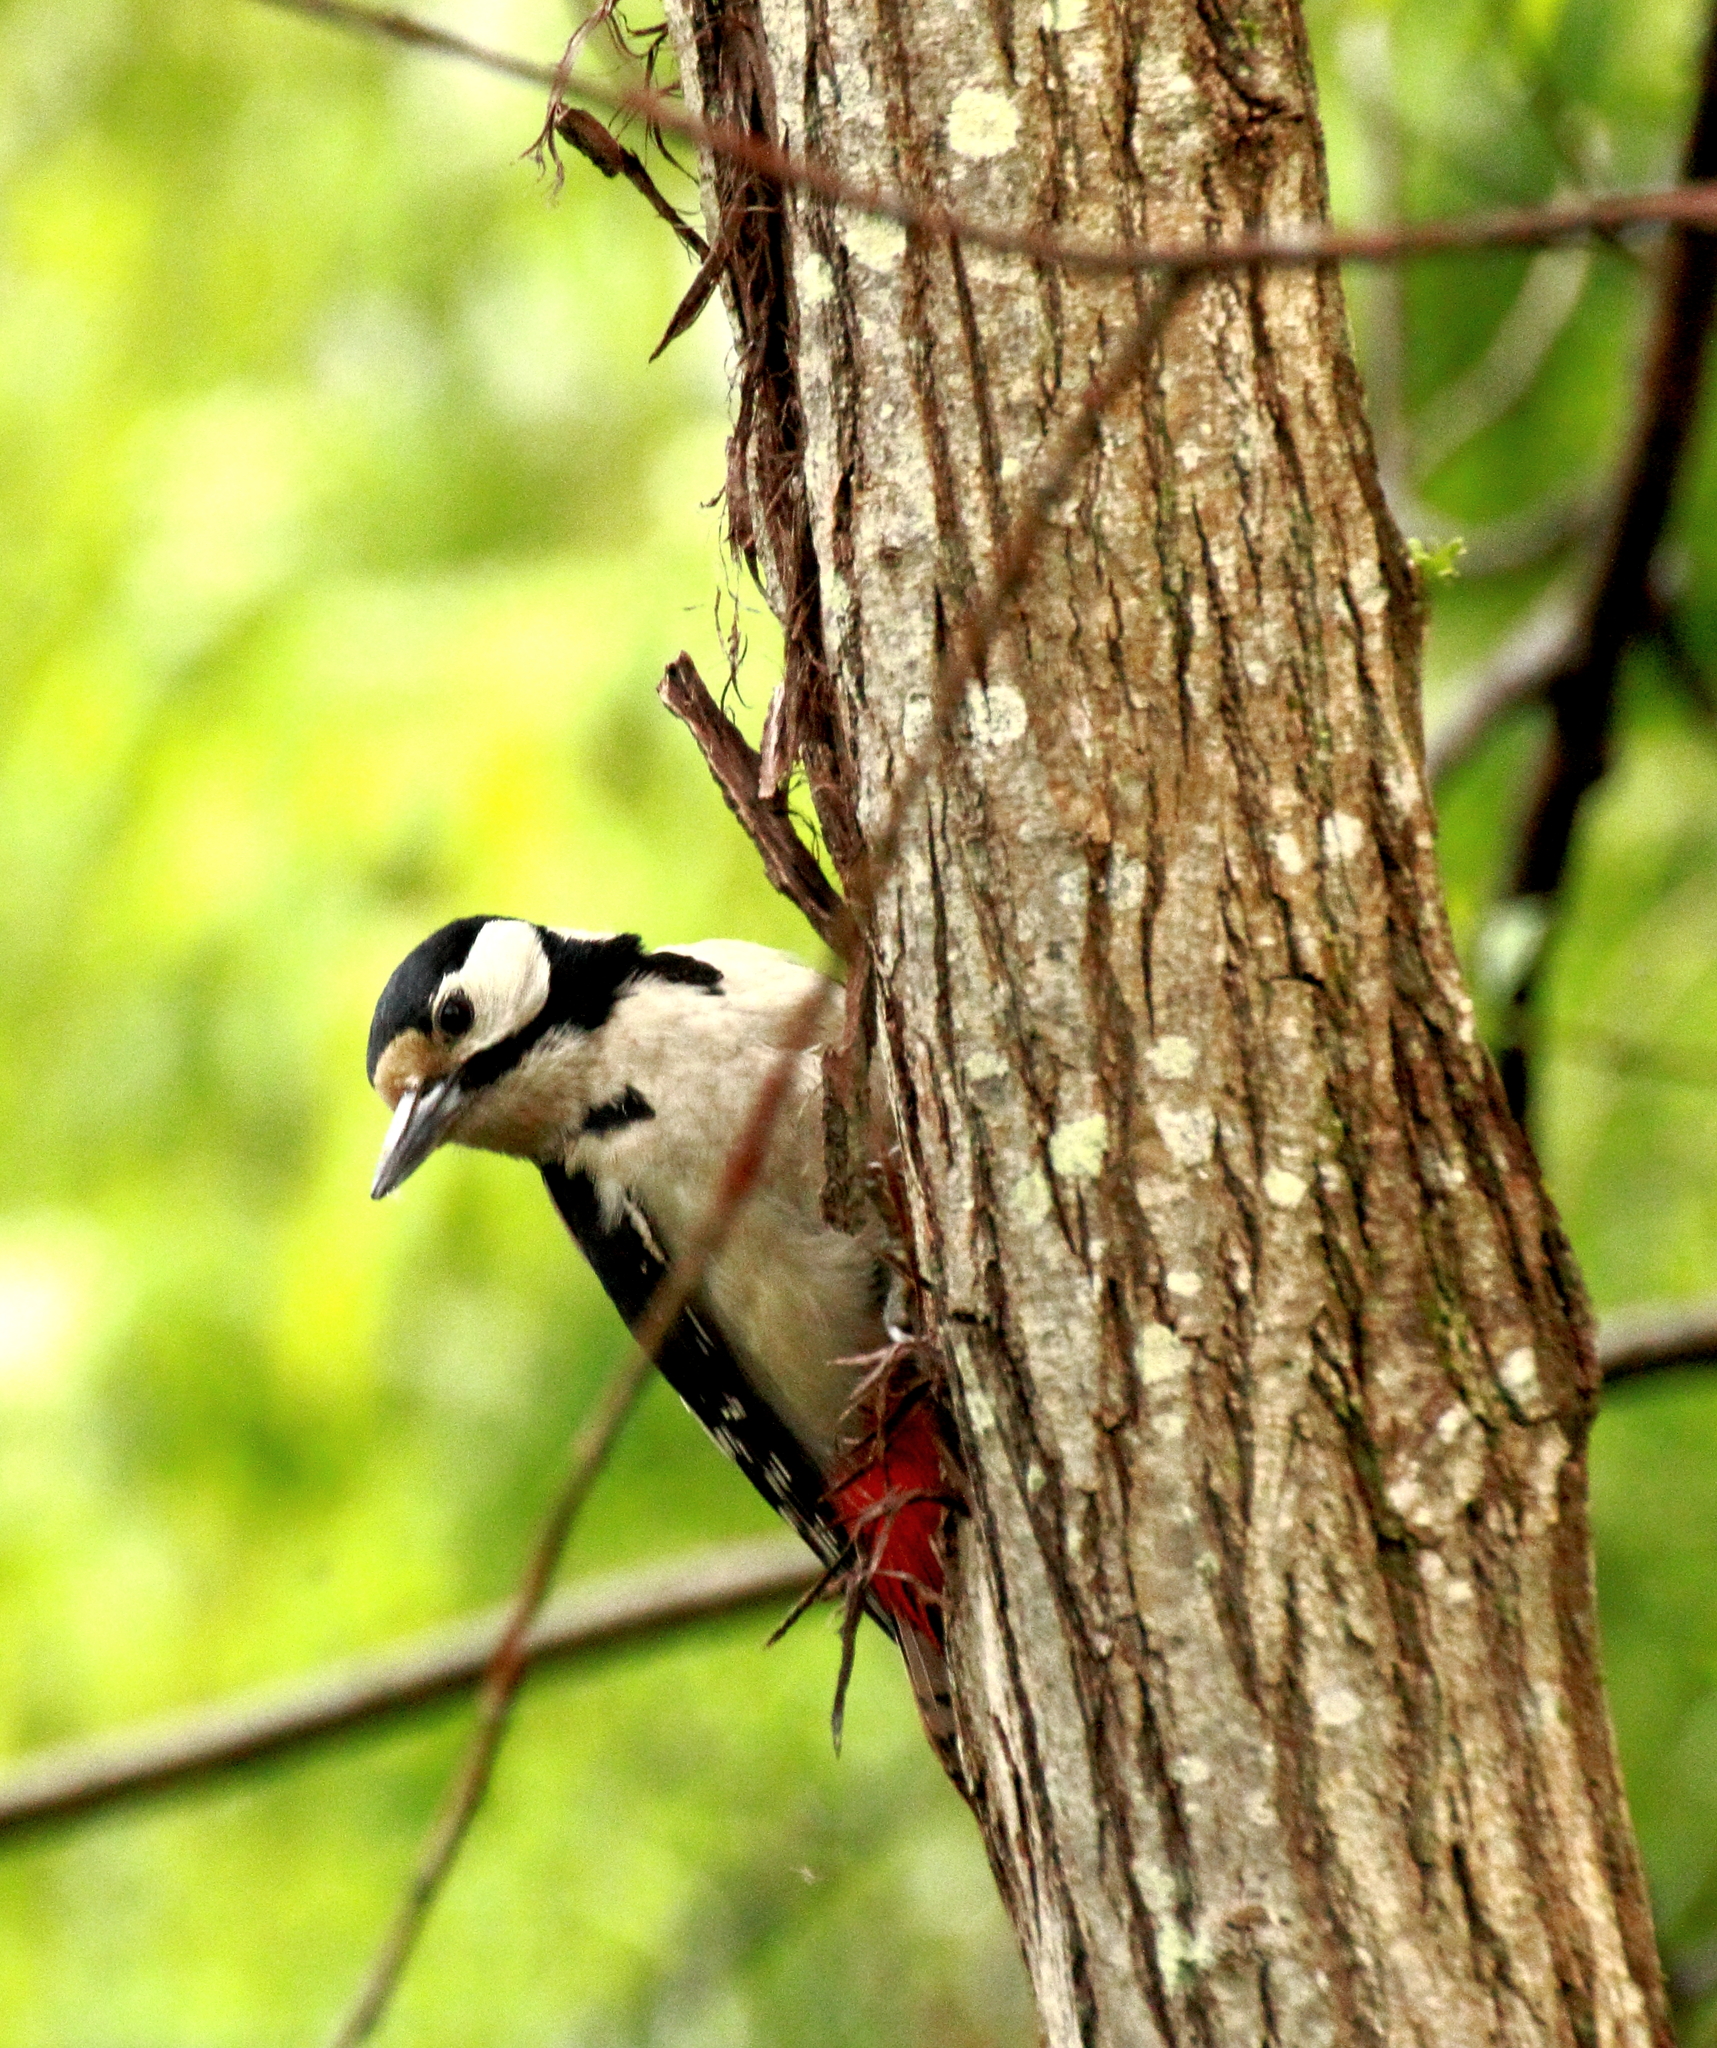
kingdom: Animalia
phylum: Chordata
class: Aves
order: Piciformes
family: Picidae
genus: Dendrocopos
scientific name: Dendrocopos major
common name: Great spotted woodpecker
